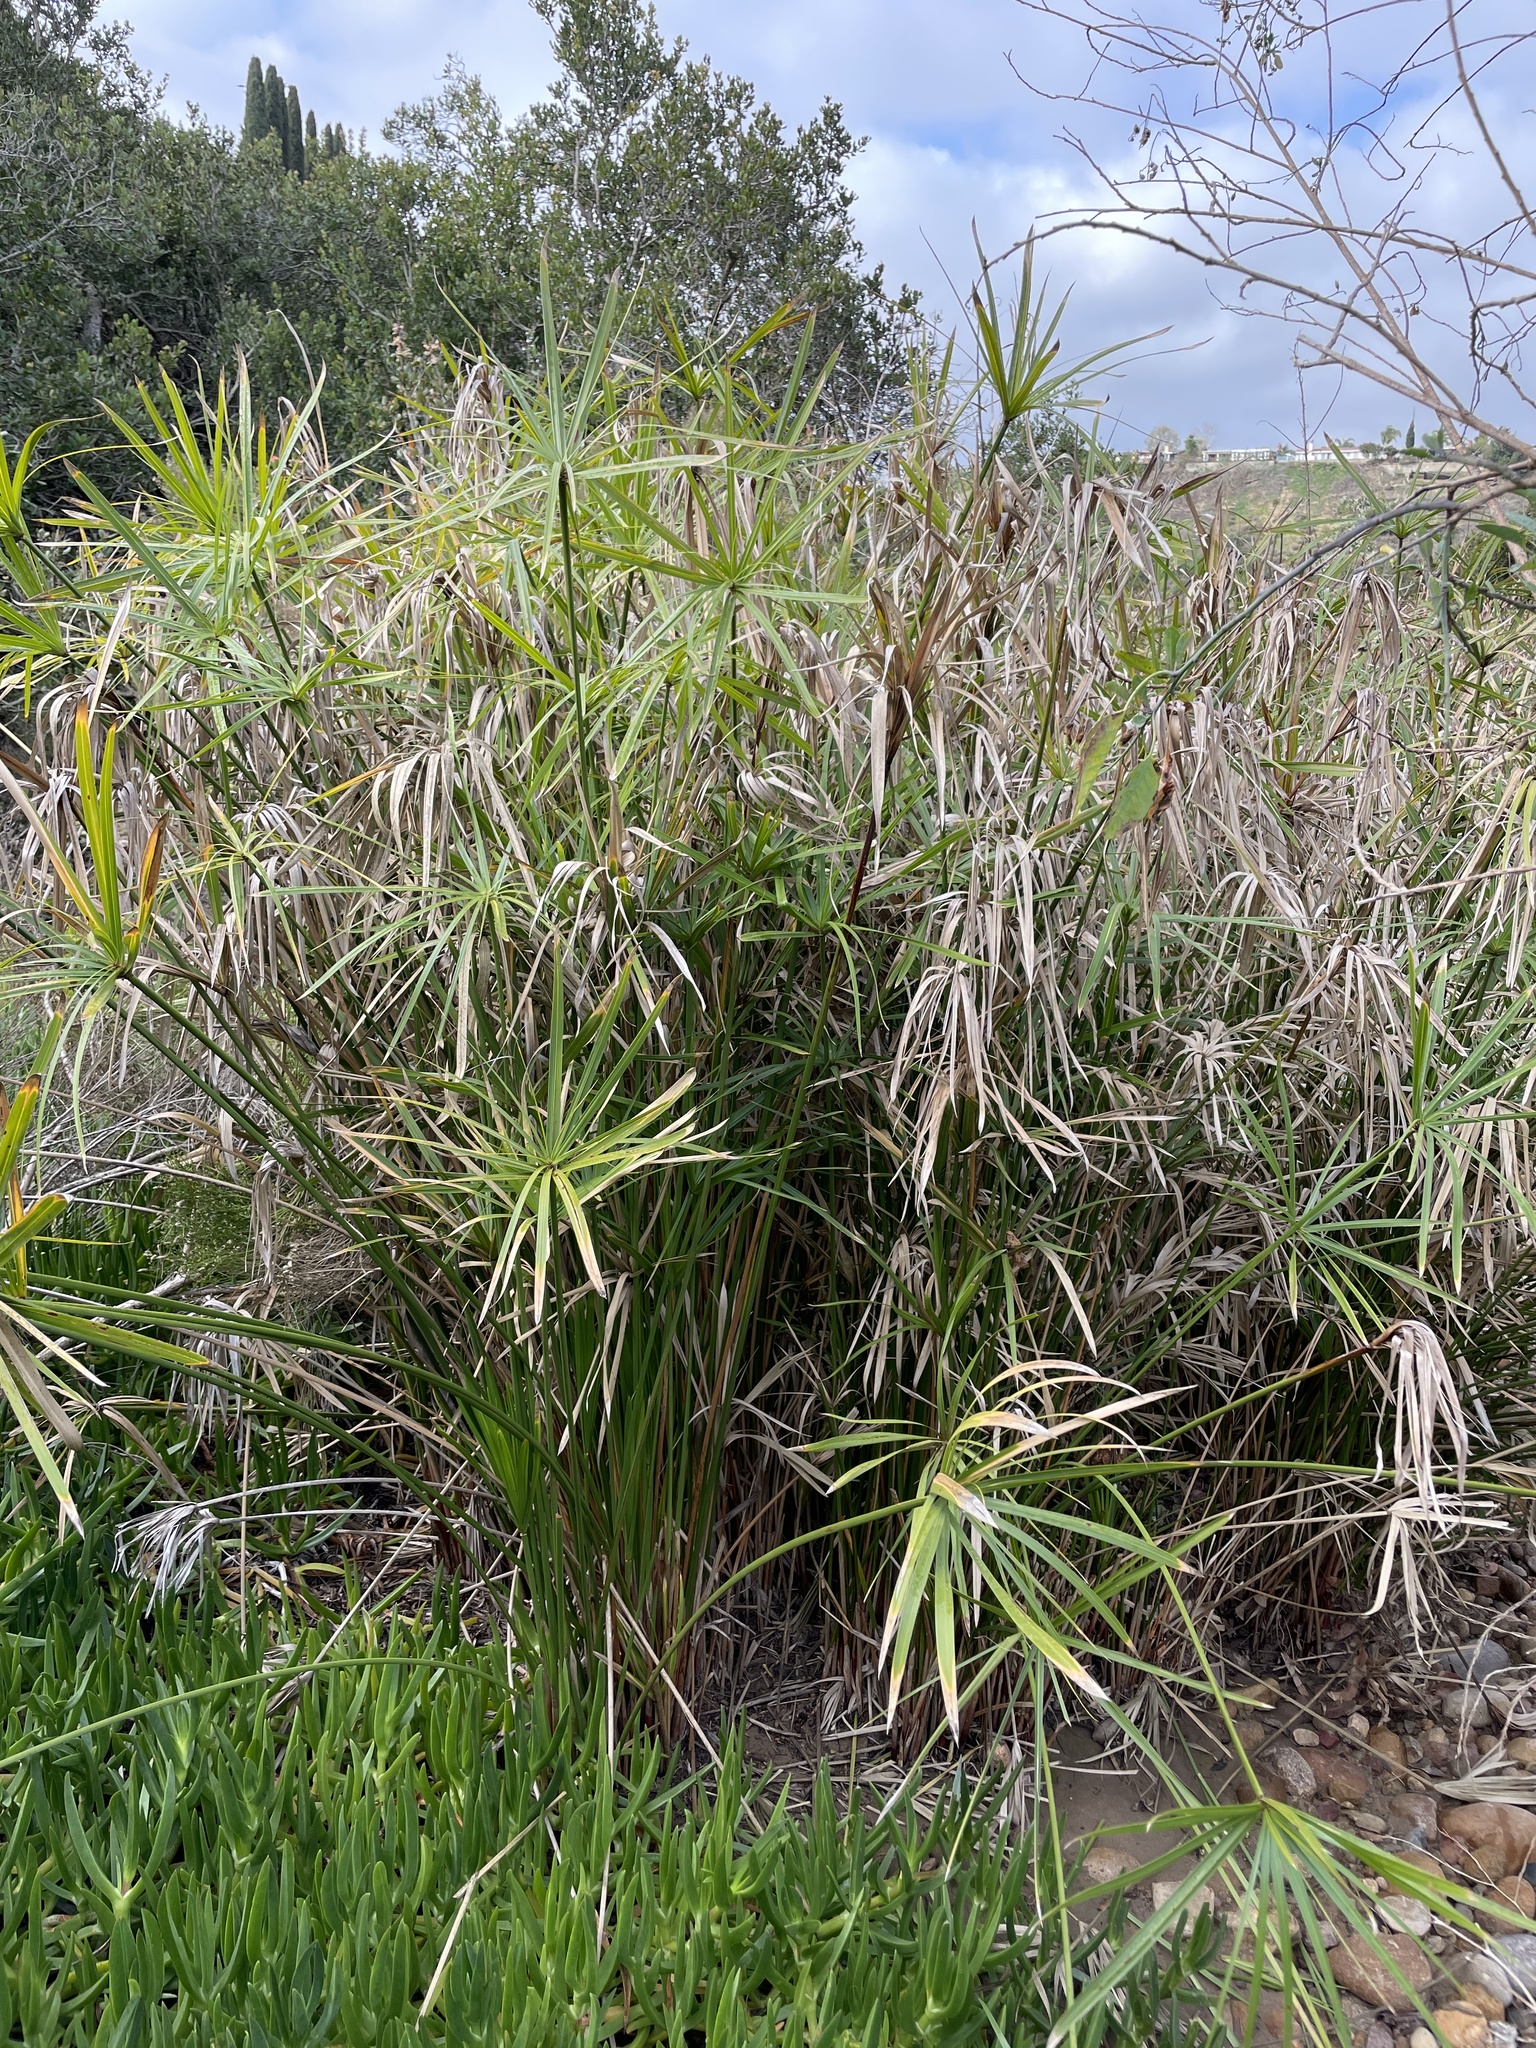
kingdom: Plantae
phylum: Tracheophyta
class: Liliopsida
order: Poales
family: Cyperaceae
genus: Cyperus
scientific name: Cyperus alternifolius
